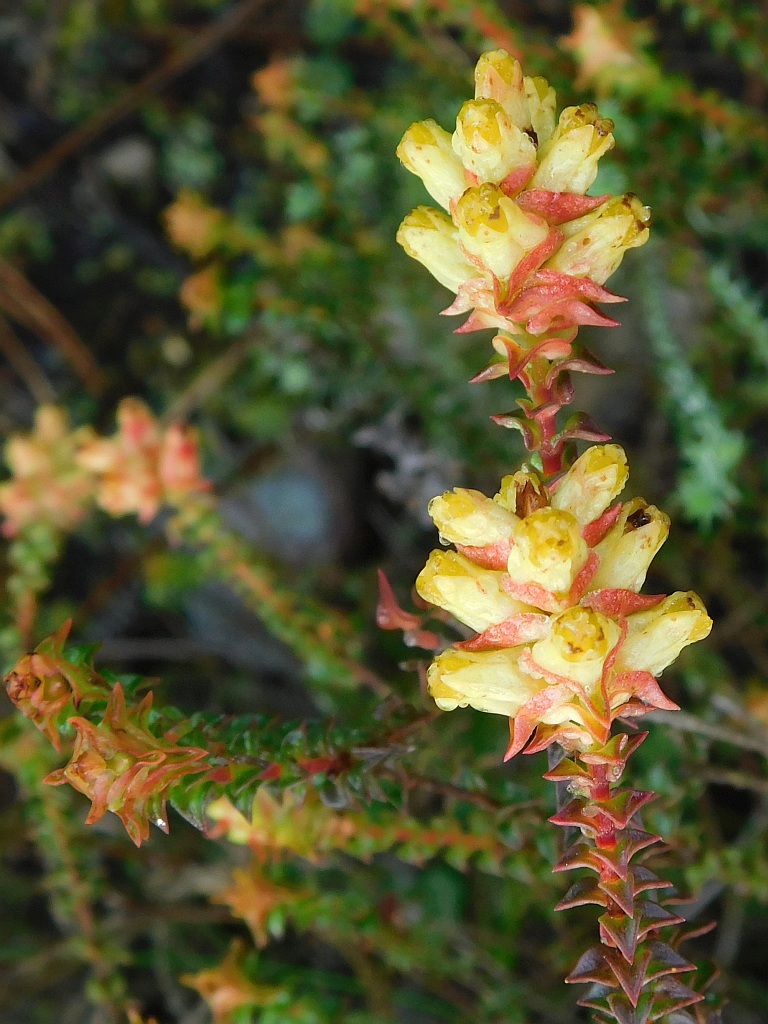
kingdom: Plantae
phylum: Tracheophyta
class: Magnoliopsida
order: Myrtales
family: Penaeaceae
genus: Penaea
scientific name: Penaea mucronata
